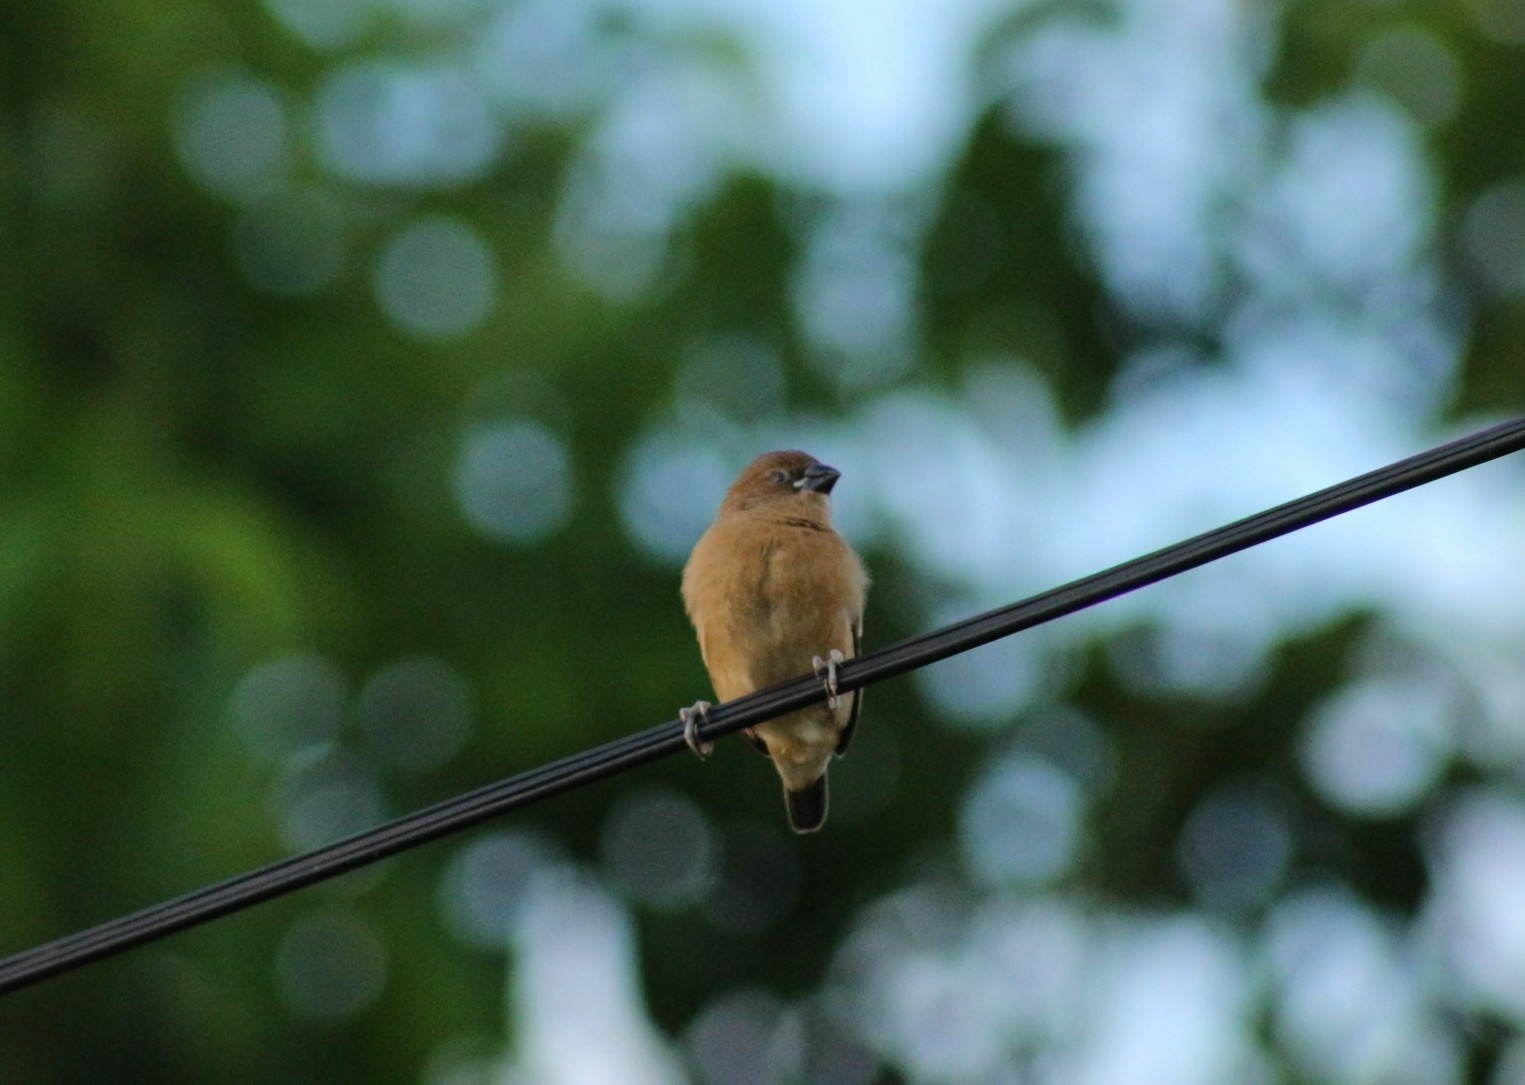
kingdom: Animalia
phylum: Chordata
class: Aves
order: Passeriformes
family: Estrildidae
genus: Lonchura
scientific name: Lonchura punctulata
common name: Scaly-breasted munia
